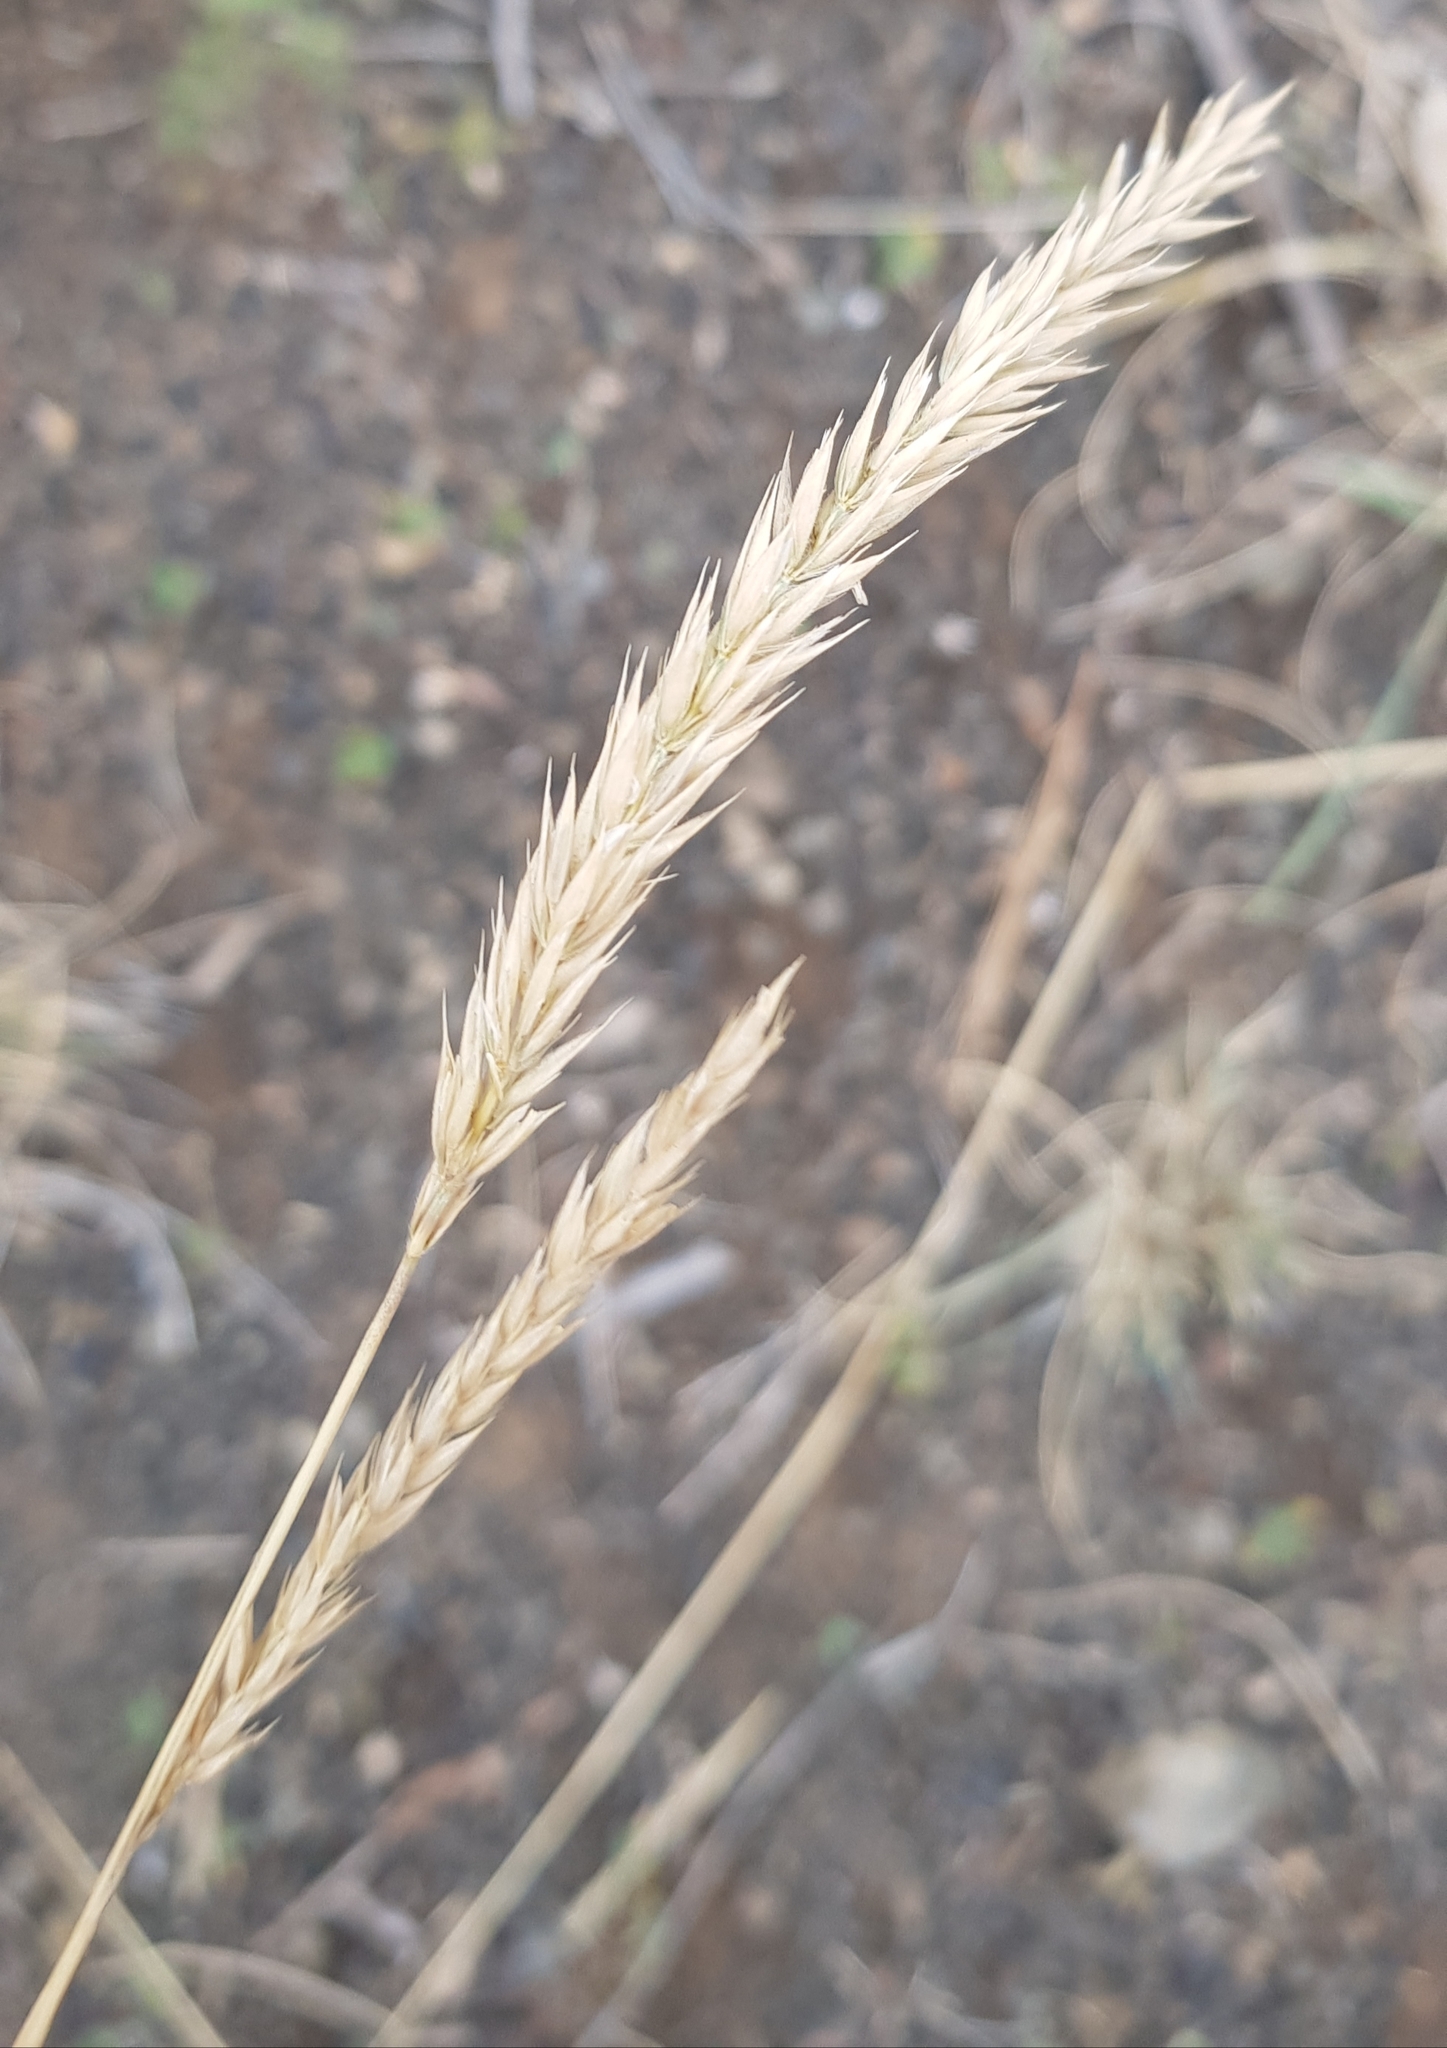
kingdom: Plantae
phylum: Tracheophyta
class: Liliopsida
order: Poales
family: Poaceae
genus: Koeleria
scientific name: Koeleria macrantha
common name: Crested hair-grass
